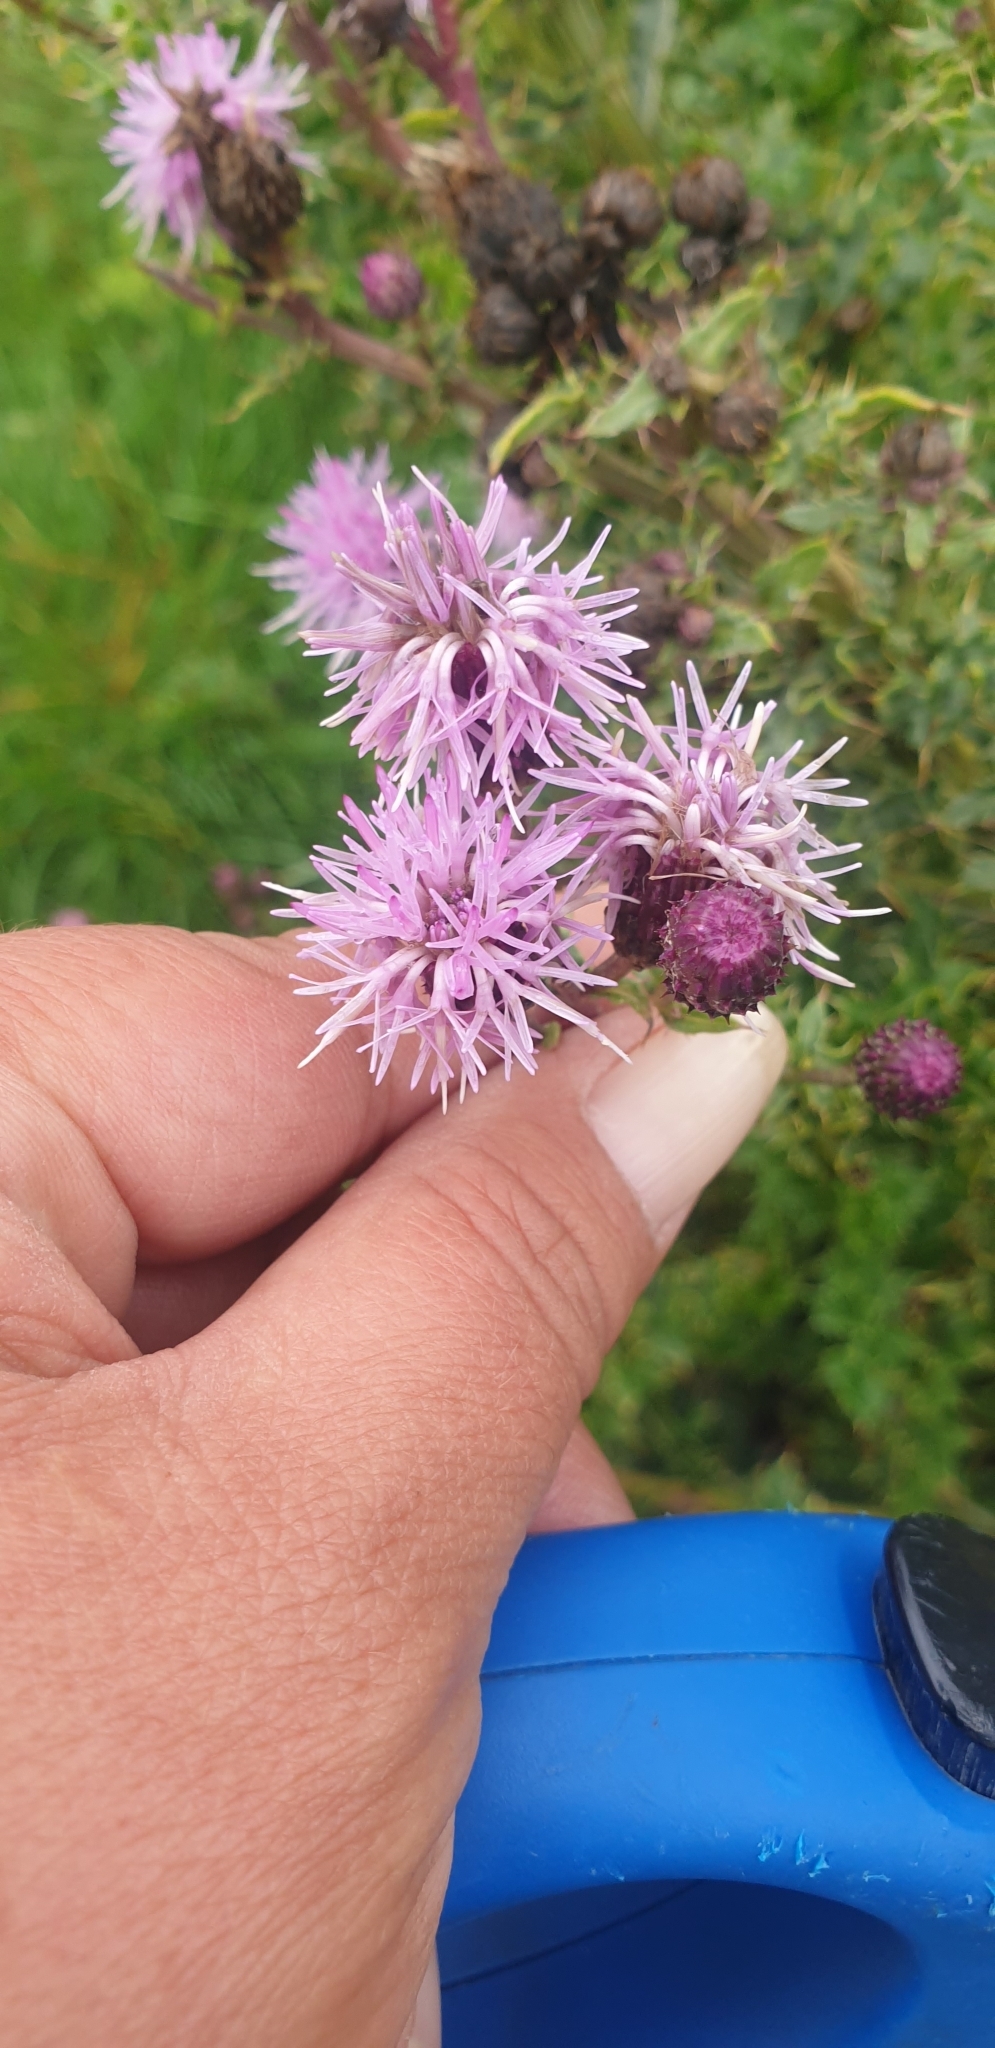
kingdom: Plantae
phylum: Tracheophyta
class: Magnoliopsida
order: Asterales
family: Asteraceae
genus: Cirsium
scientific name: Cirsium arvense
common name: Creeping thistle
